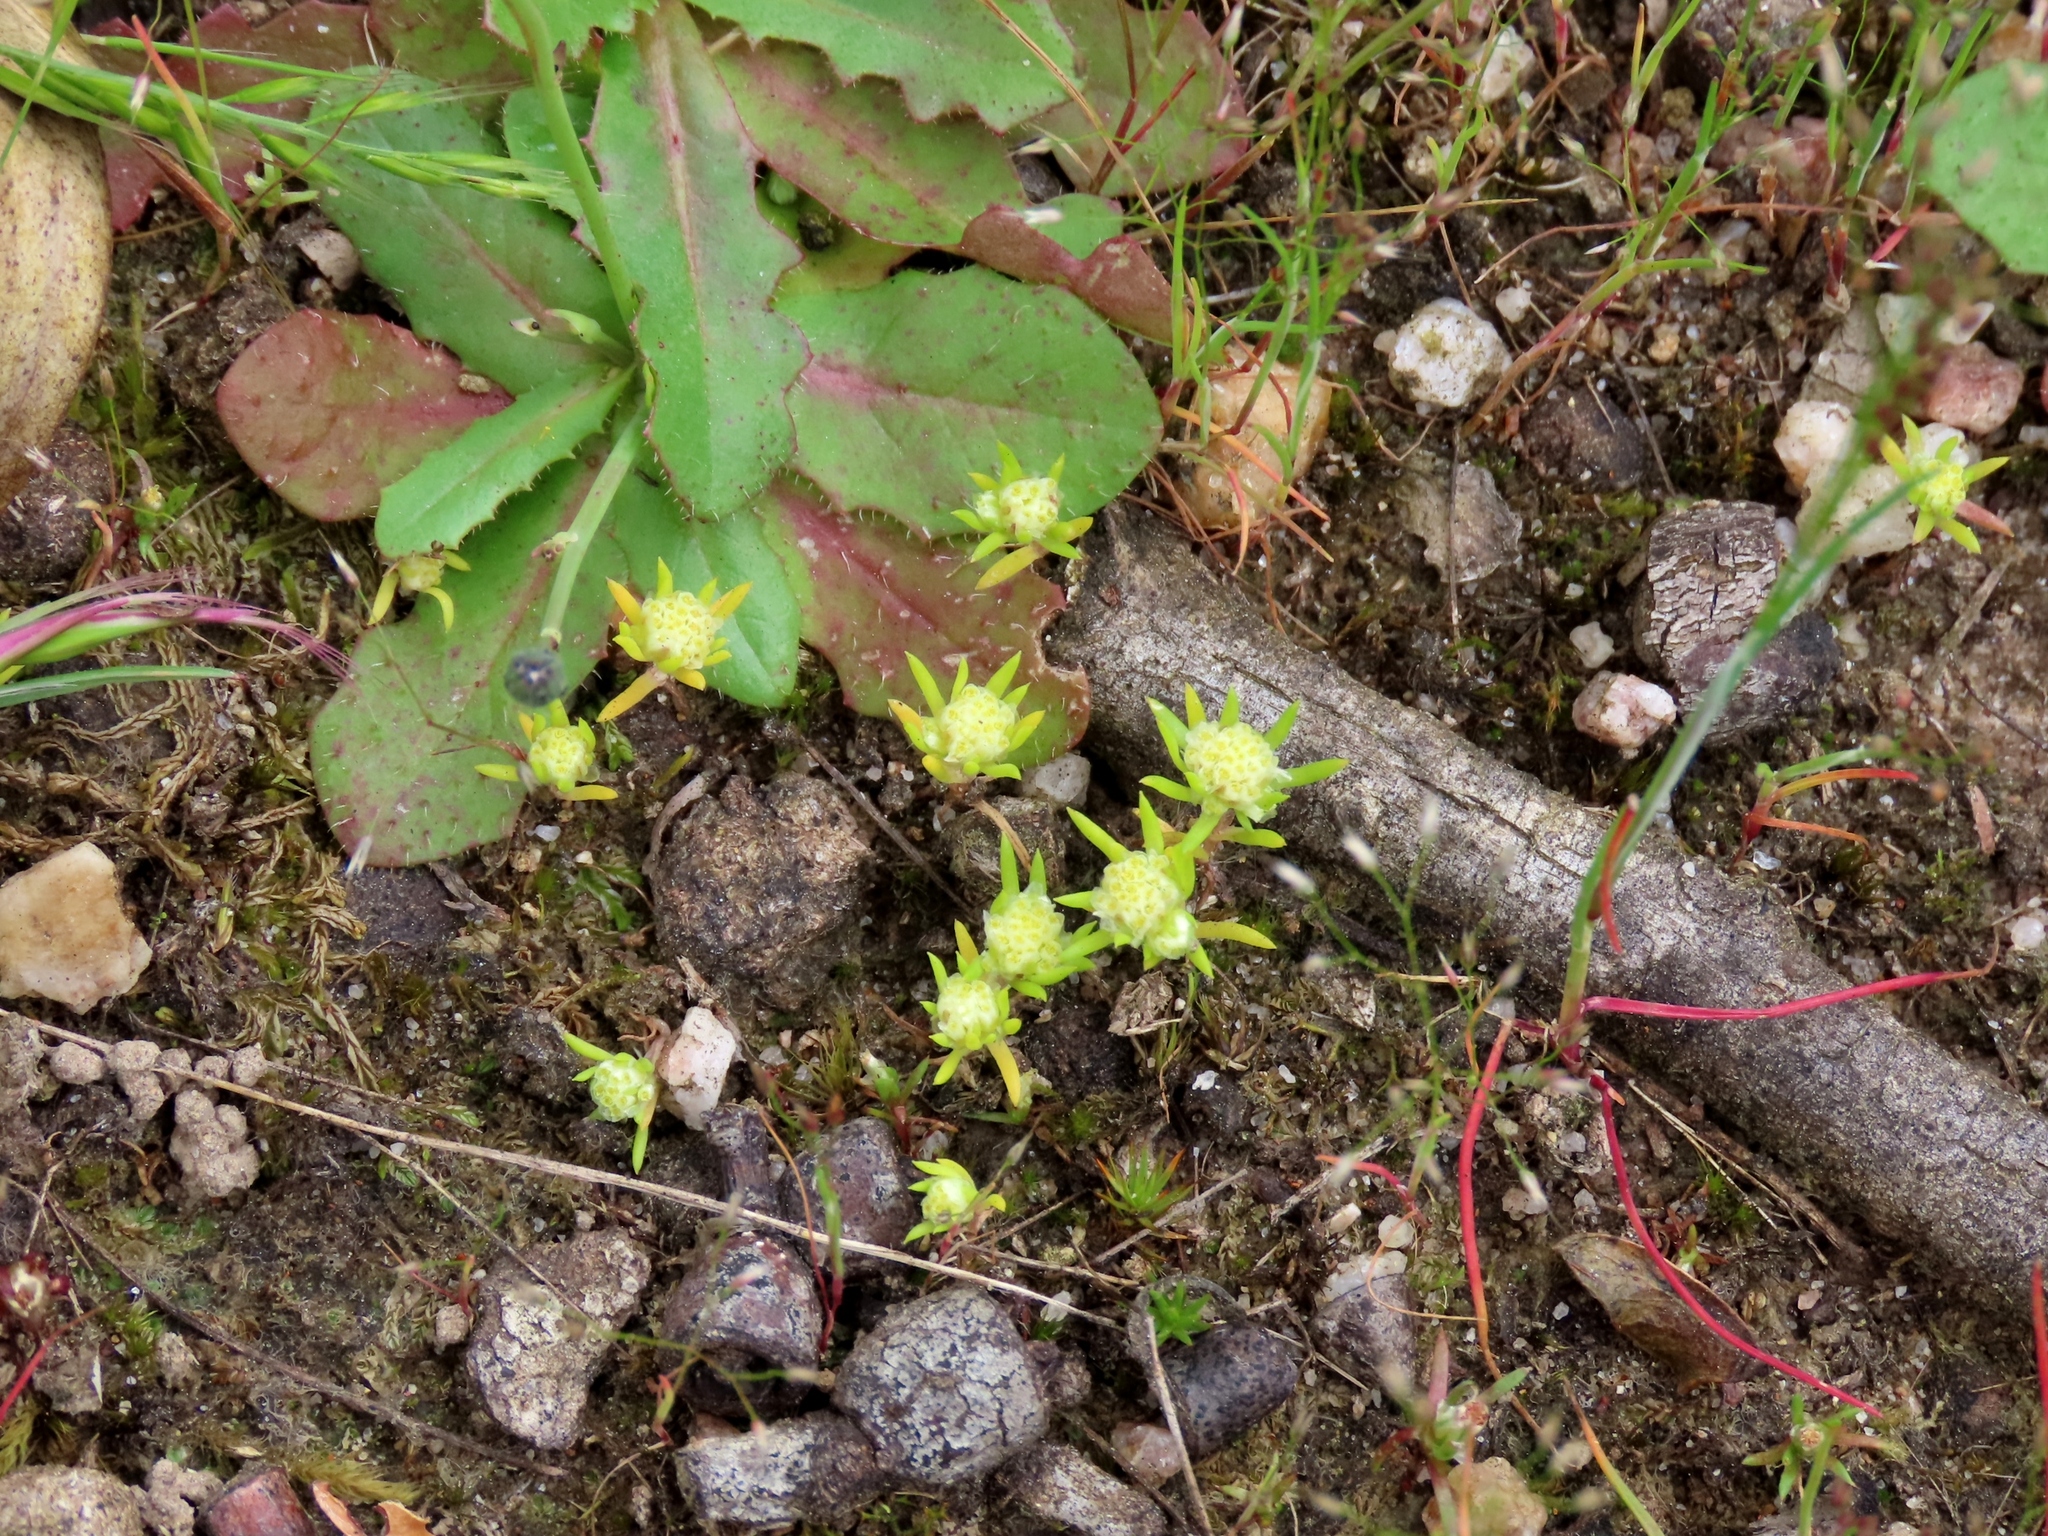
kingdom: Plantae
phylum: Tracheophyta
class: Magnoliopsida
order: Asterales
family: Asteraceae
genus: Siloxerus
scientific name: Siloxerus multiflorus
